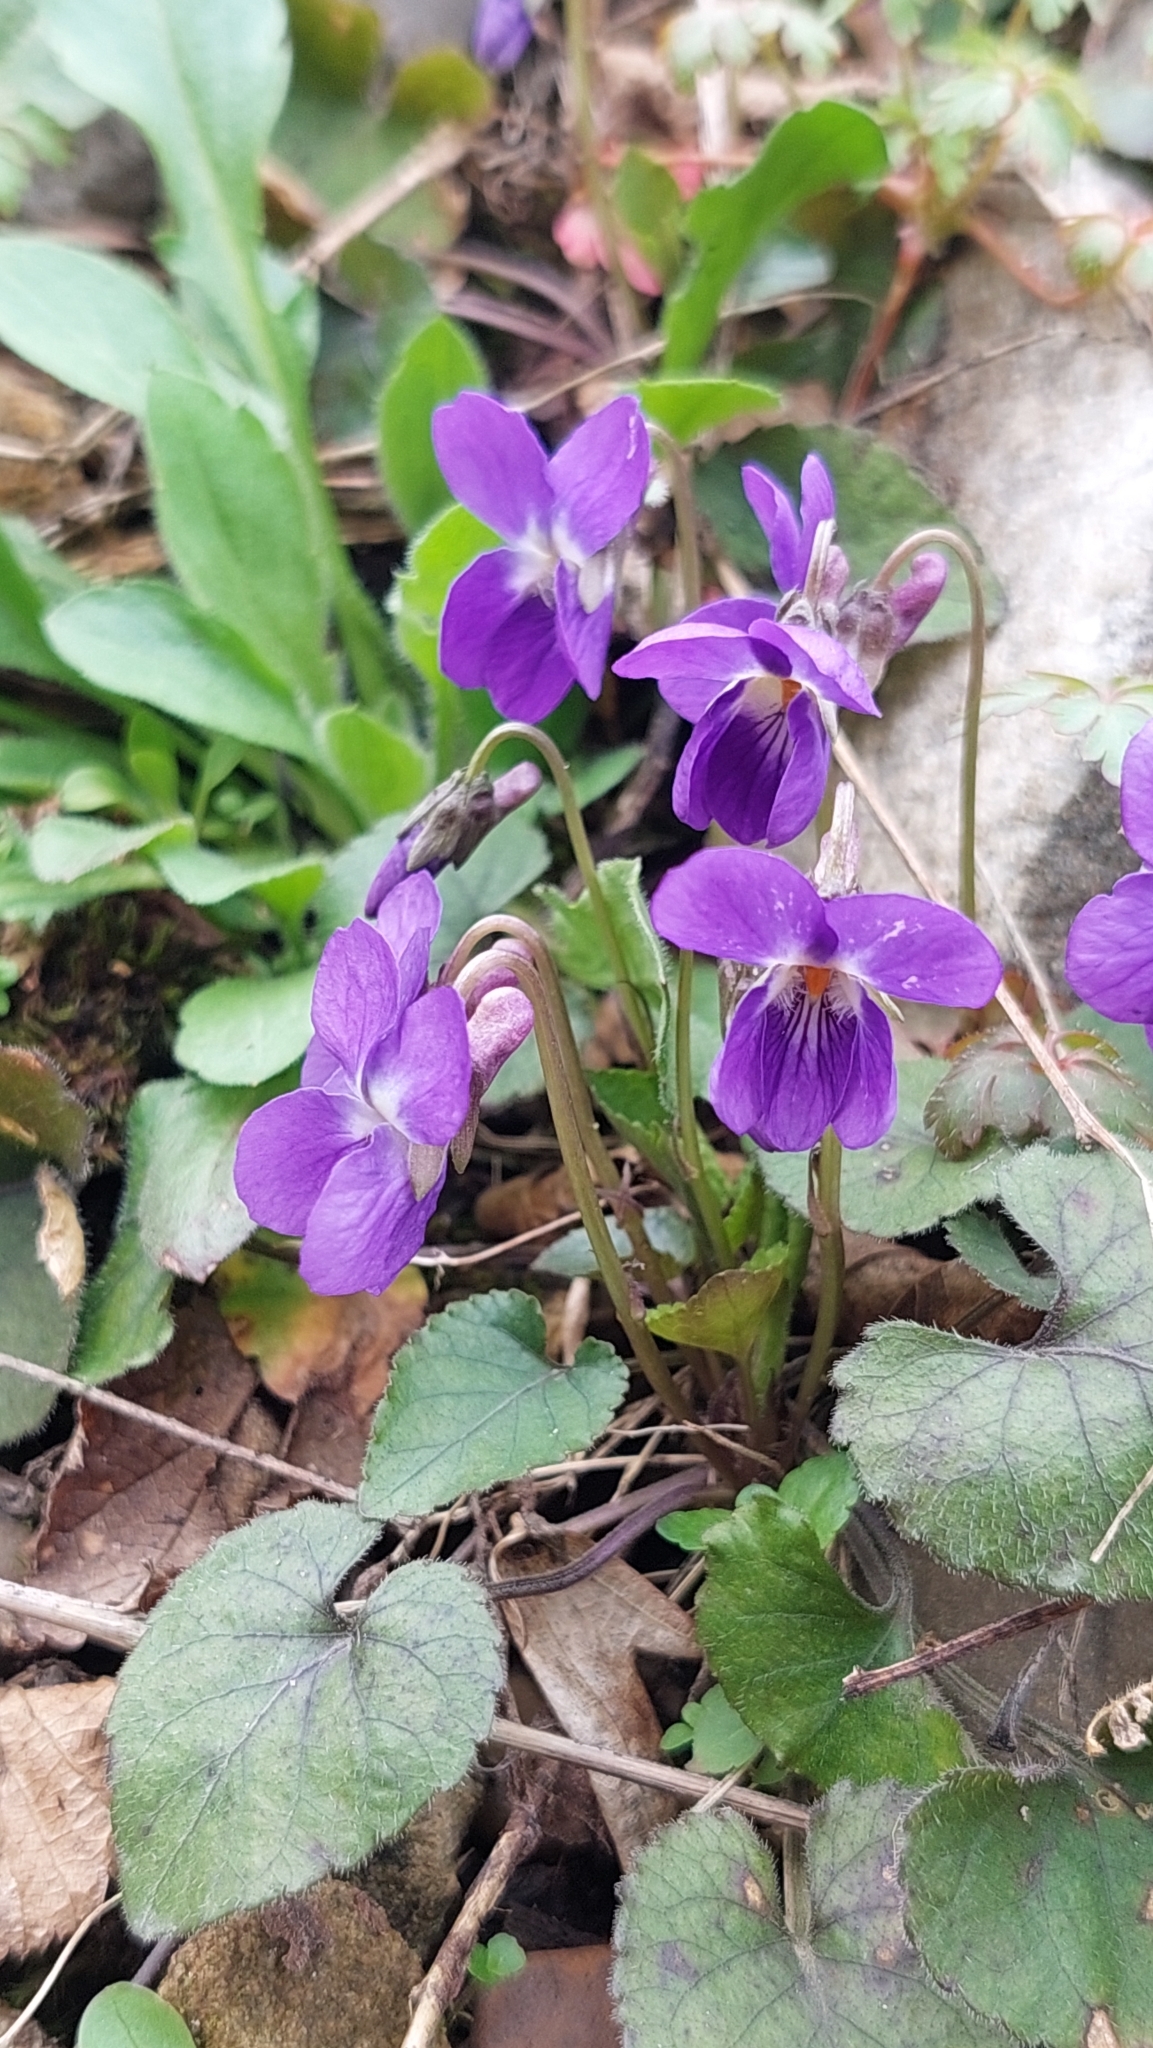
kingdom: Plantae
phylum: Tracheophyta
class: Magnoliopsida
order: Malpighiales
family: Violaceae
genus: Viola
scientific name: Viola alba
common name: White violet
